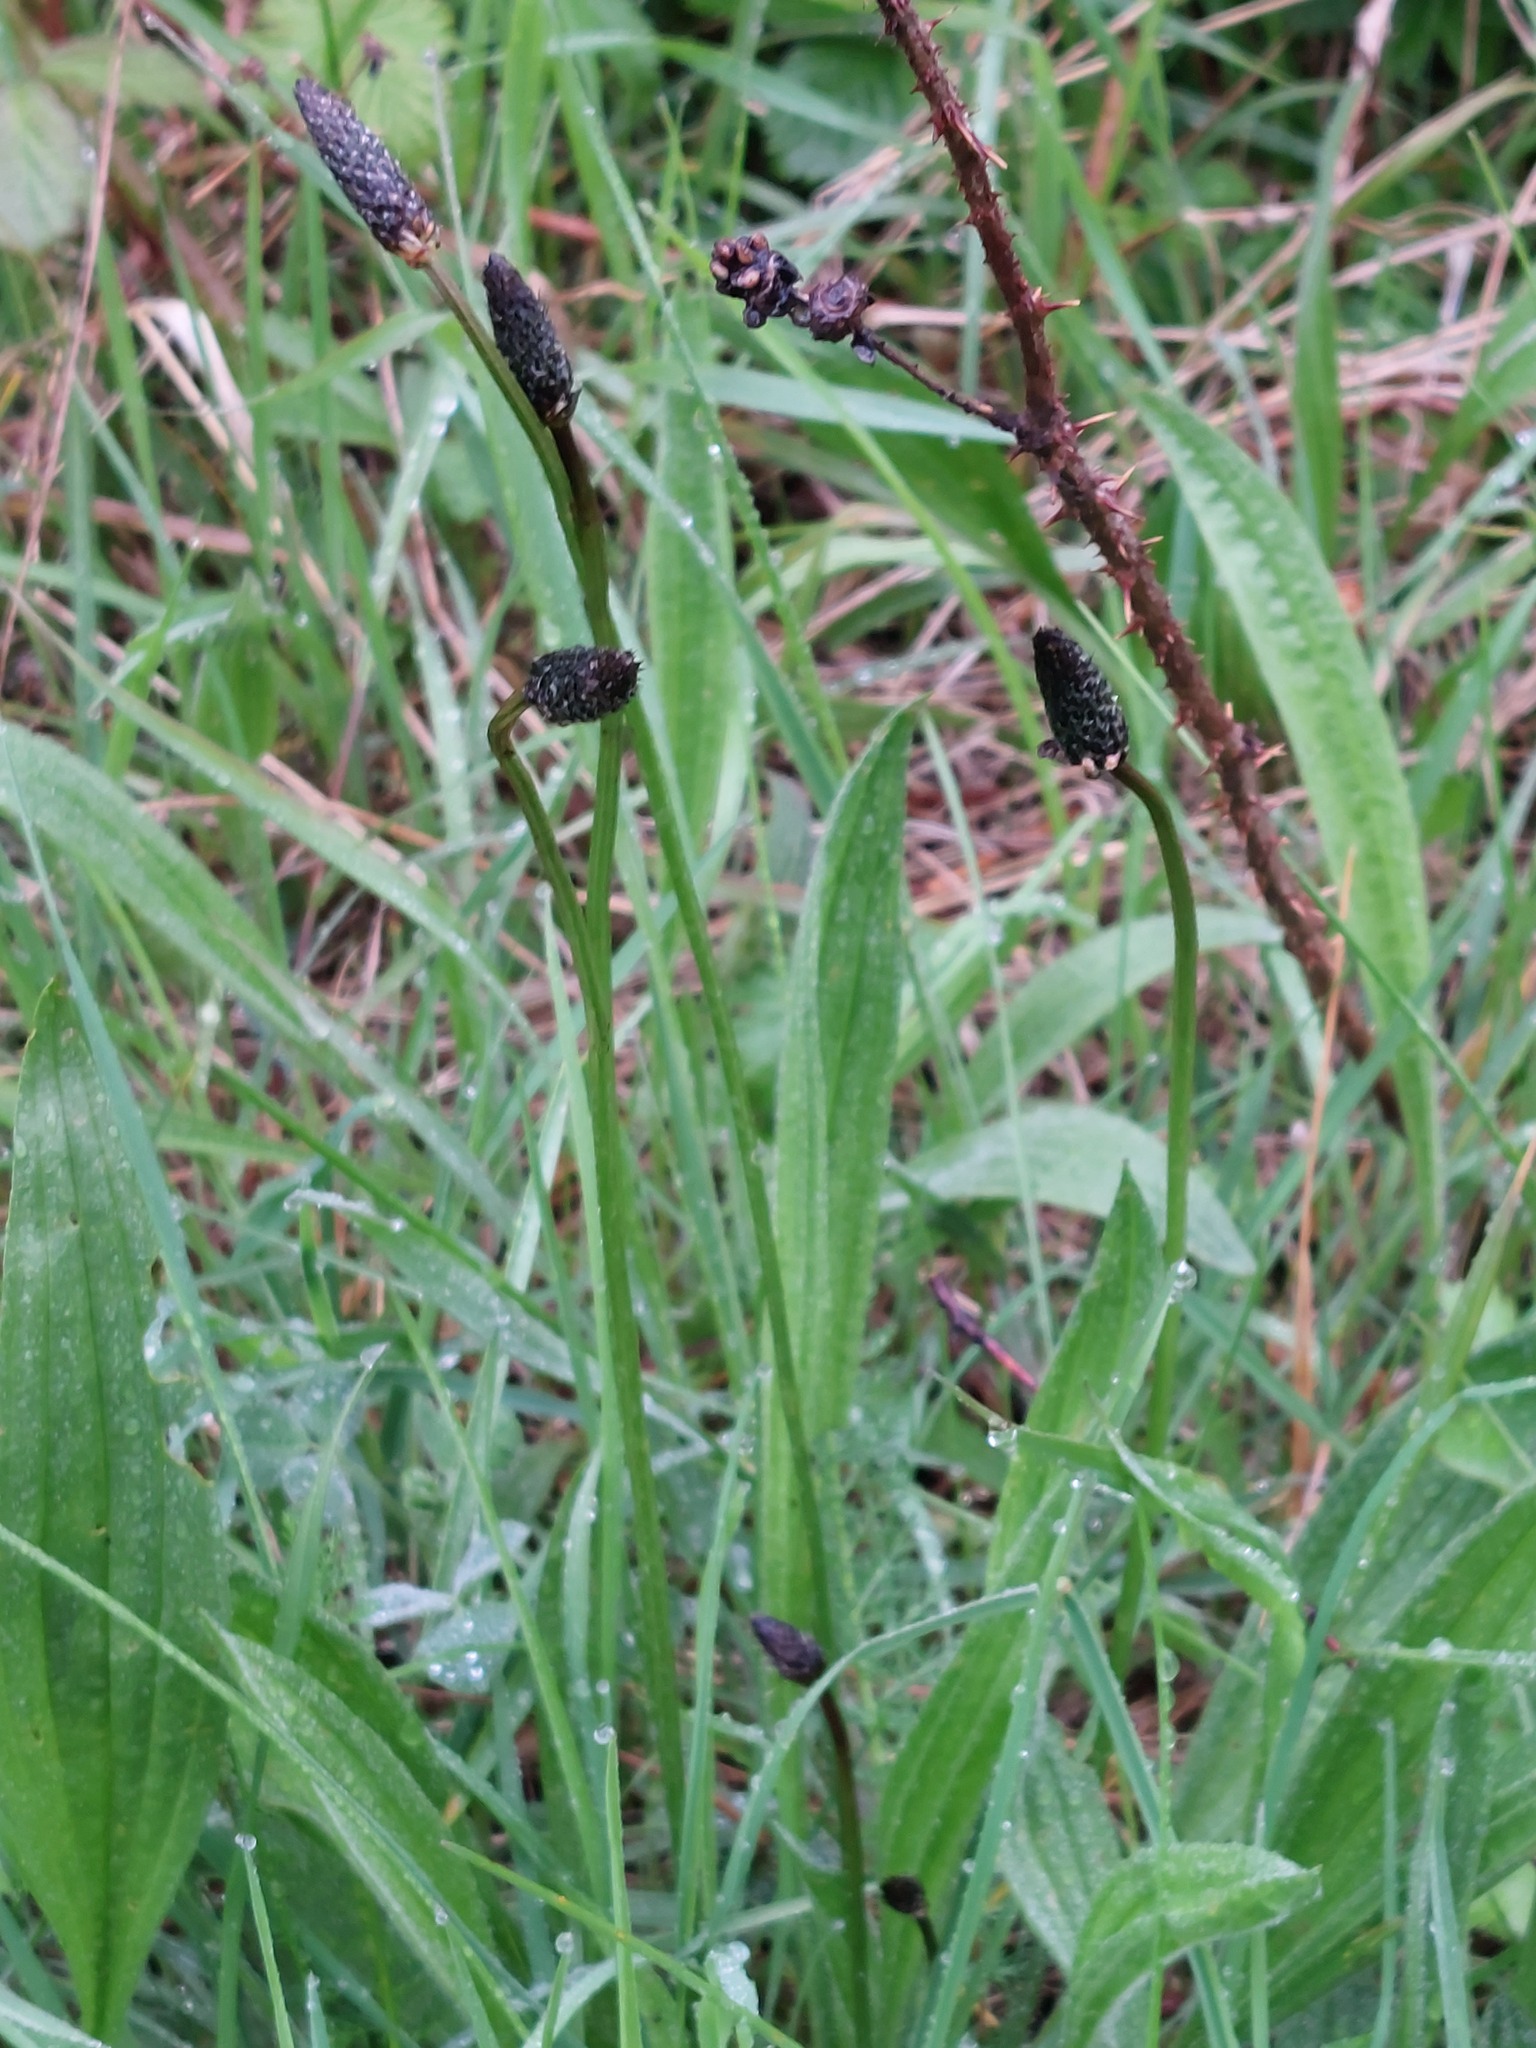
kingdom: Plantae
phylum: Tracheophyta
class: Magnoliopsida
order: Lamiales
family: Plantaginaceae
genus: Plantago
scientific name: Plantago lanceolata
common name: Ribwort plantain
